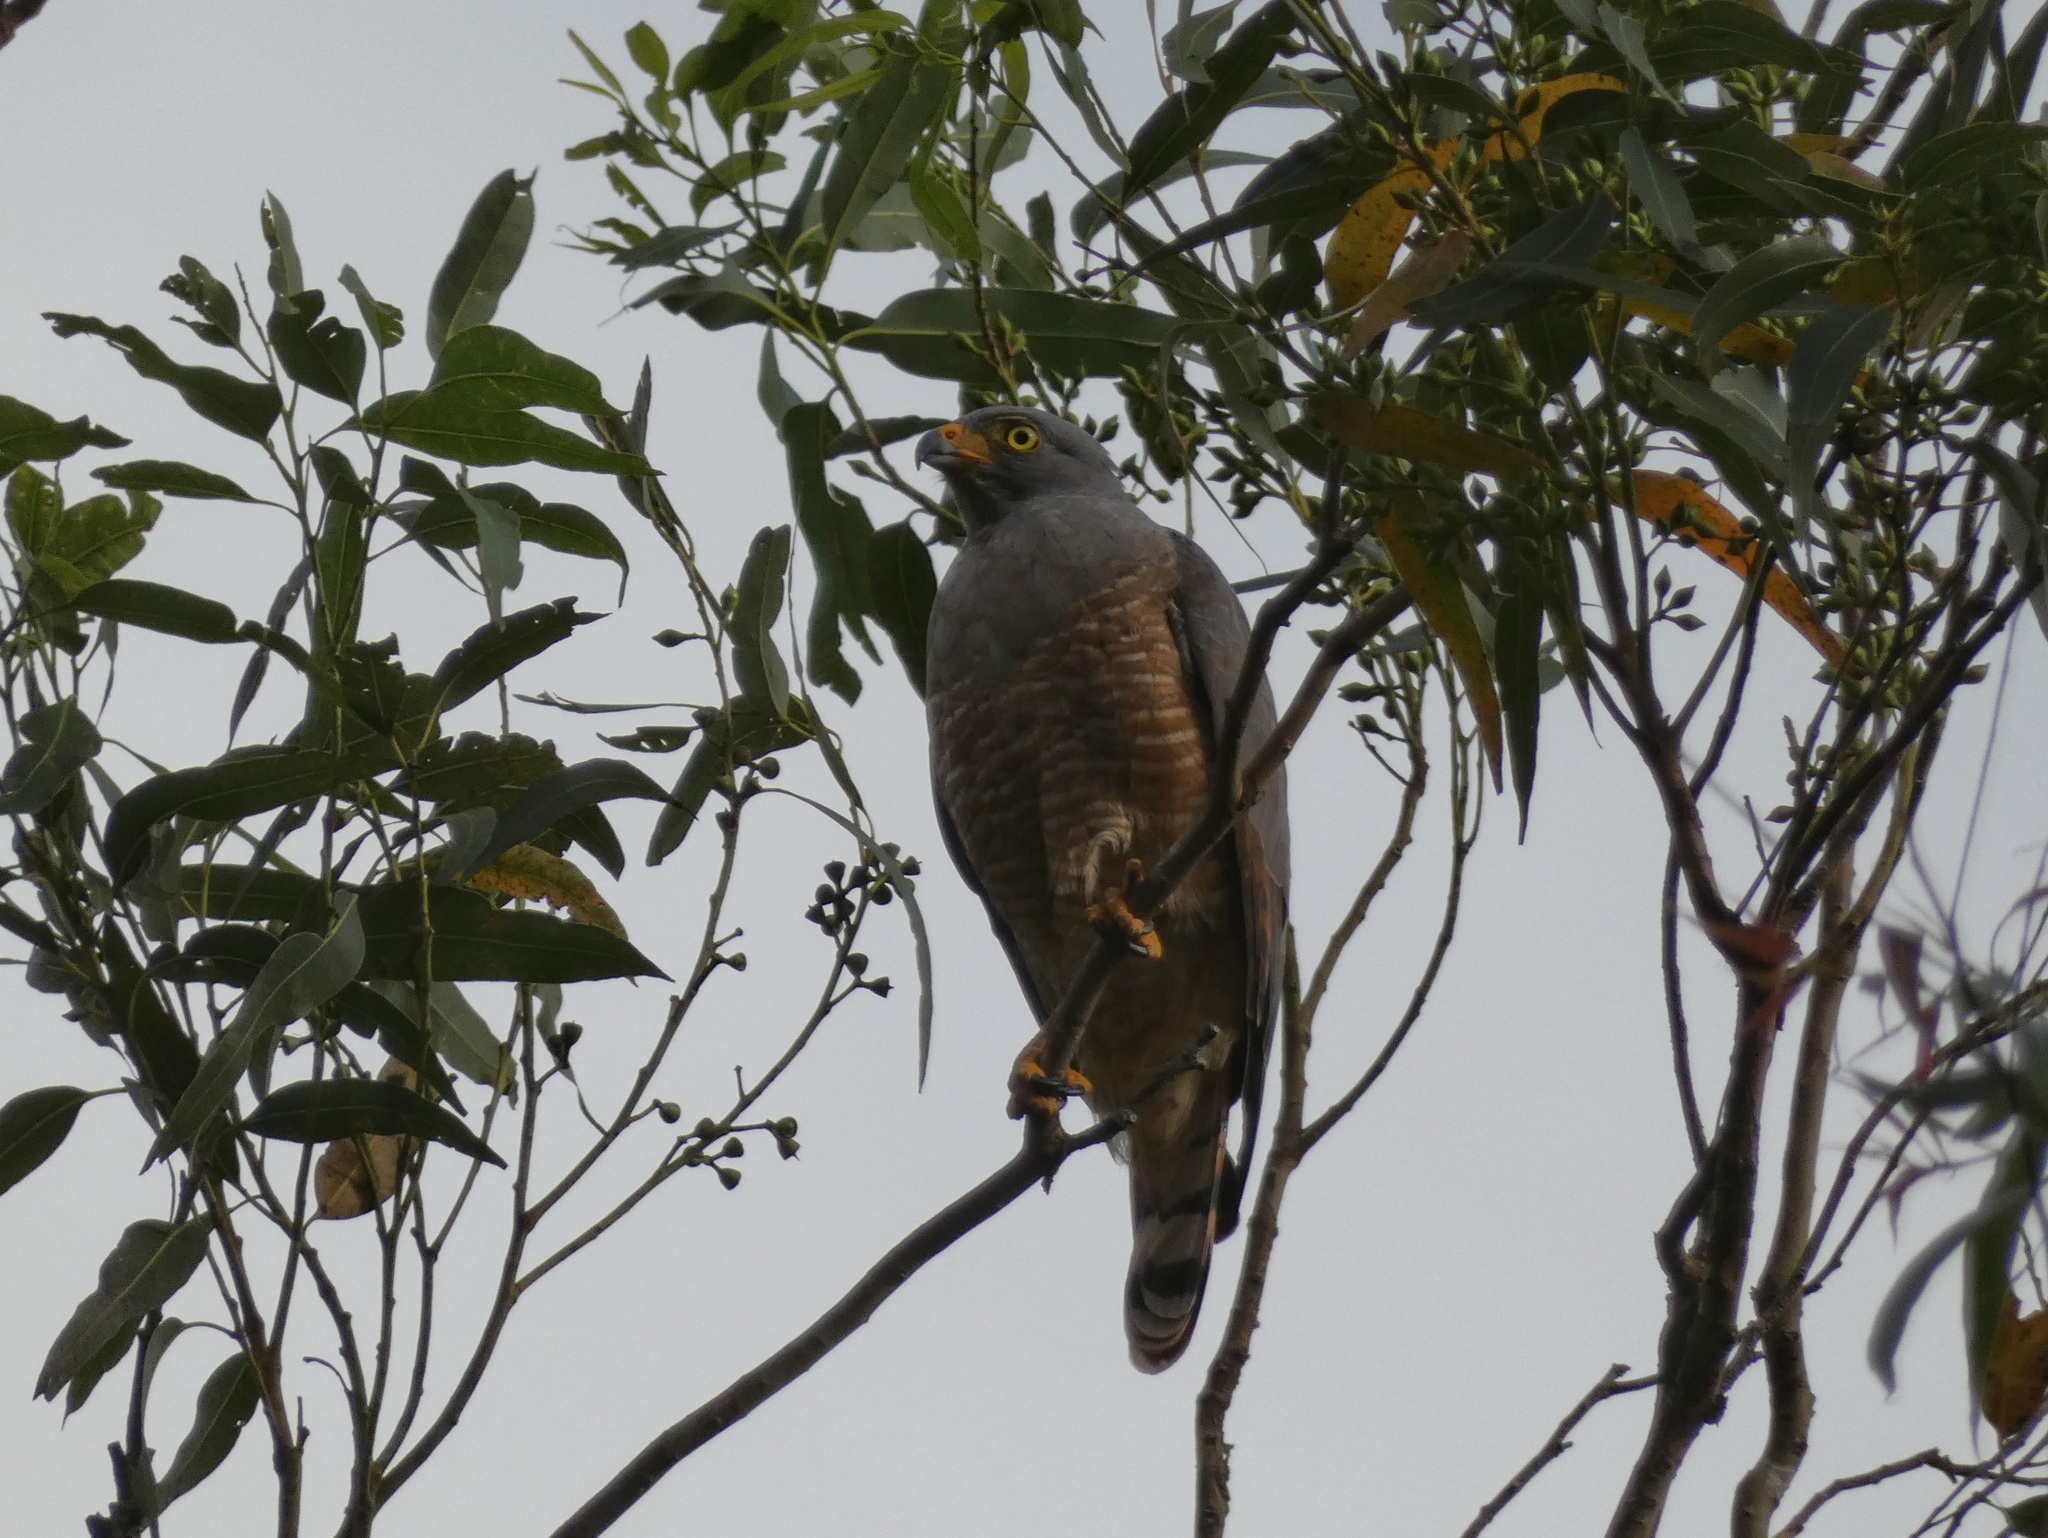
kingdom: Animalia
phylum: Chordata
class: Aves
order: Accipitriformes
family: Accipitridae
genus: Rupornis
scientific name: Rupornis magnirostris
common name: Roadside hawk
